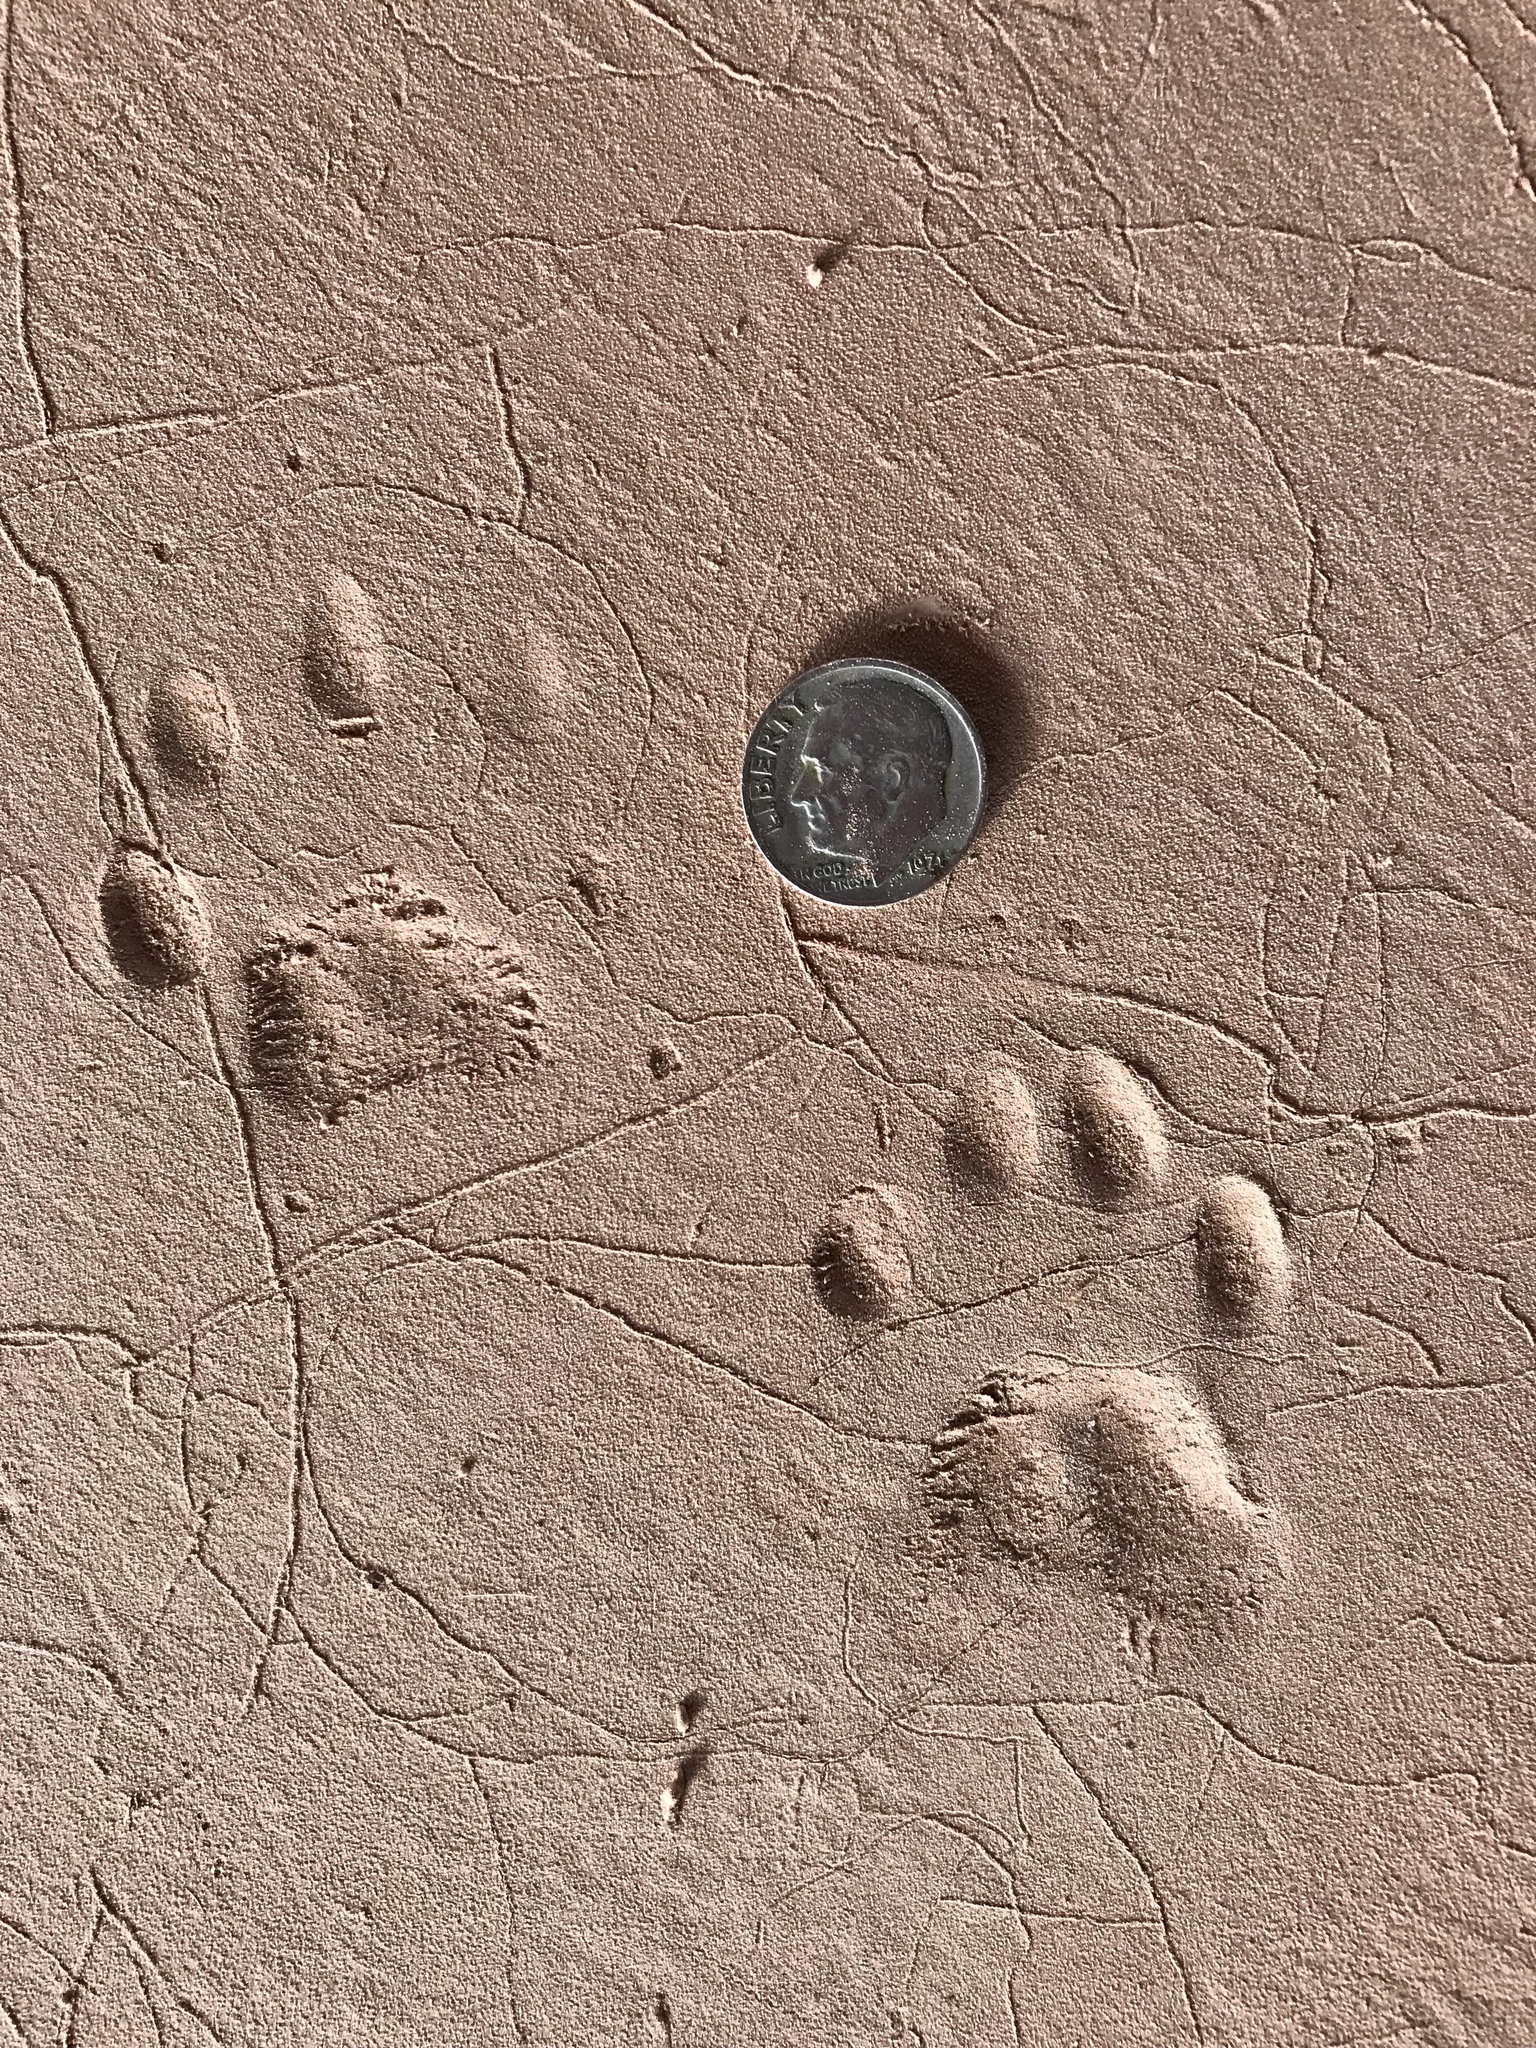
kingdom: Animalia
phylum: Chordata
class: Mammalia
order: Carnivora
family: Procyonidae
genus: Procyon
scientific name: Procyon lotor
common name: Raccoon
